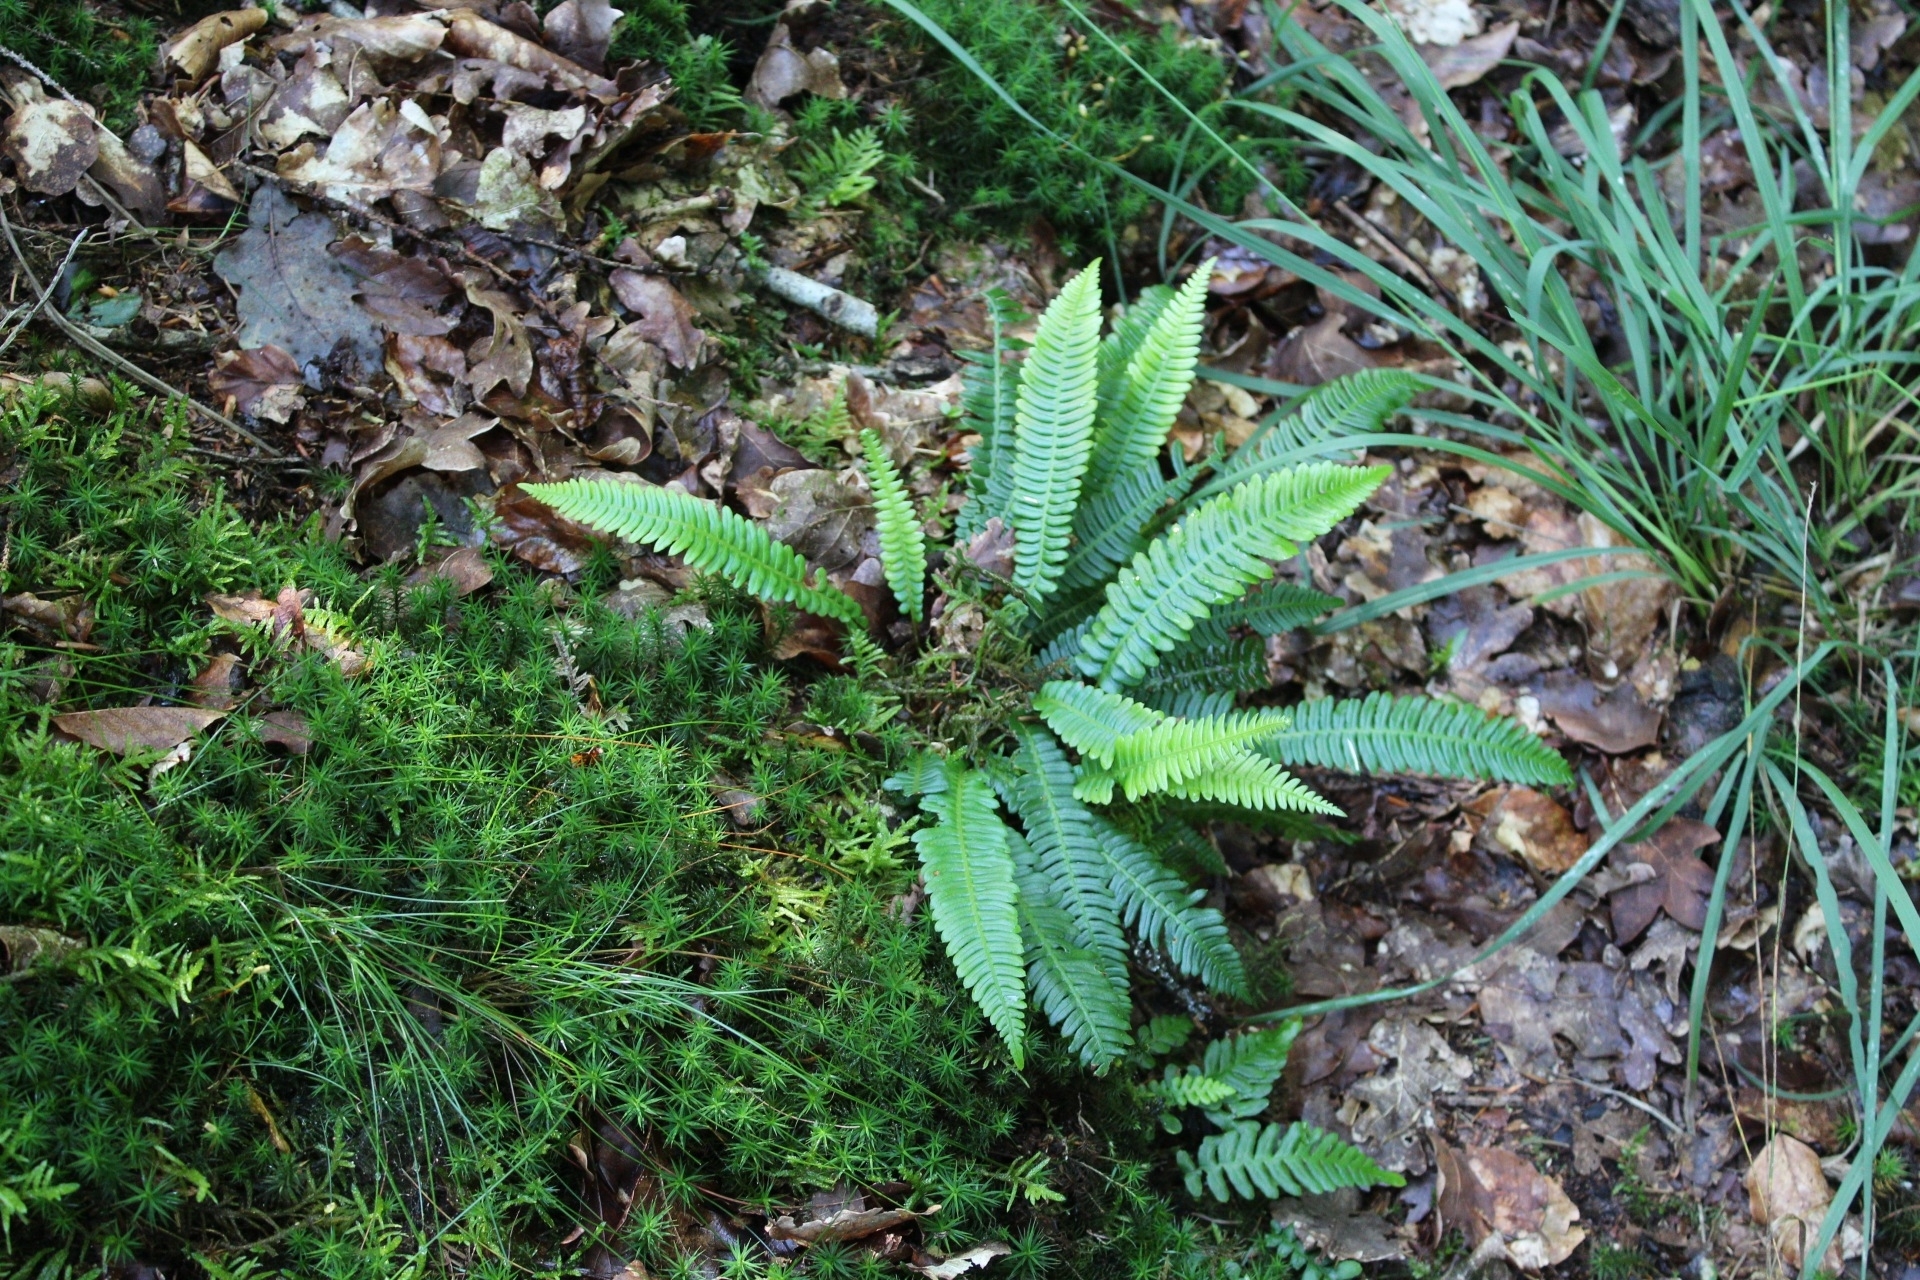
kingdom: Plantae
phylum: Tracheophyta
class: Polypodiopsida
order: Polypodiales
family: Blechnaceae
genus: Struthiopteris
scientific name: Struthiopteris spicant
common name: Deer fern
